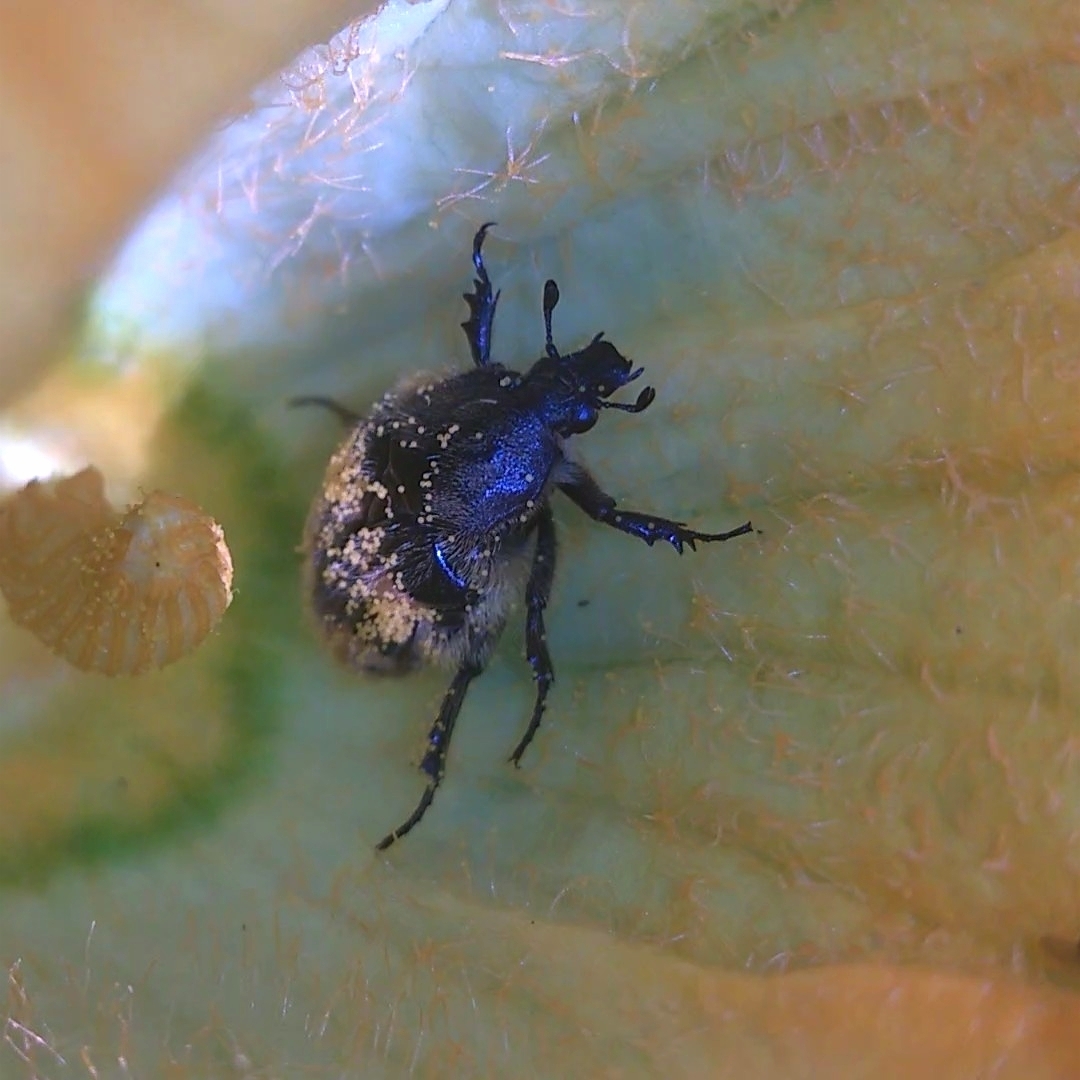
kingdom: Animalia
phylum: Arthropoda
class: Insecta
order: Coleoptera
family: Scarabaeidae
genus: Euphoria
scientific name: Euphoria basalis
